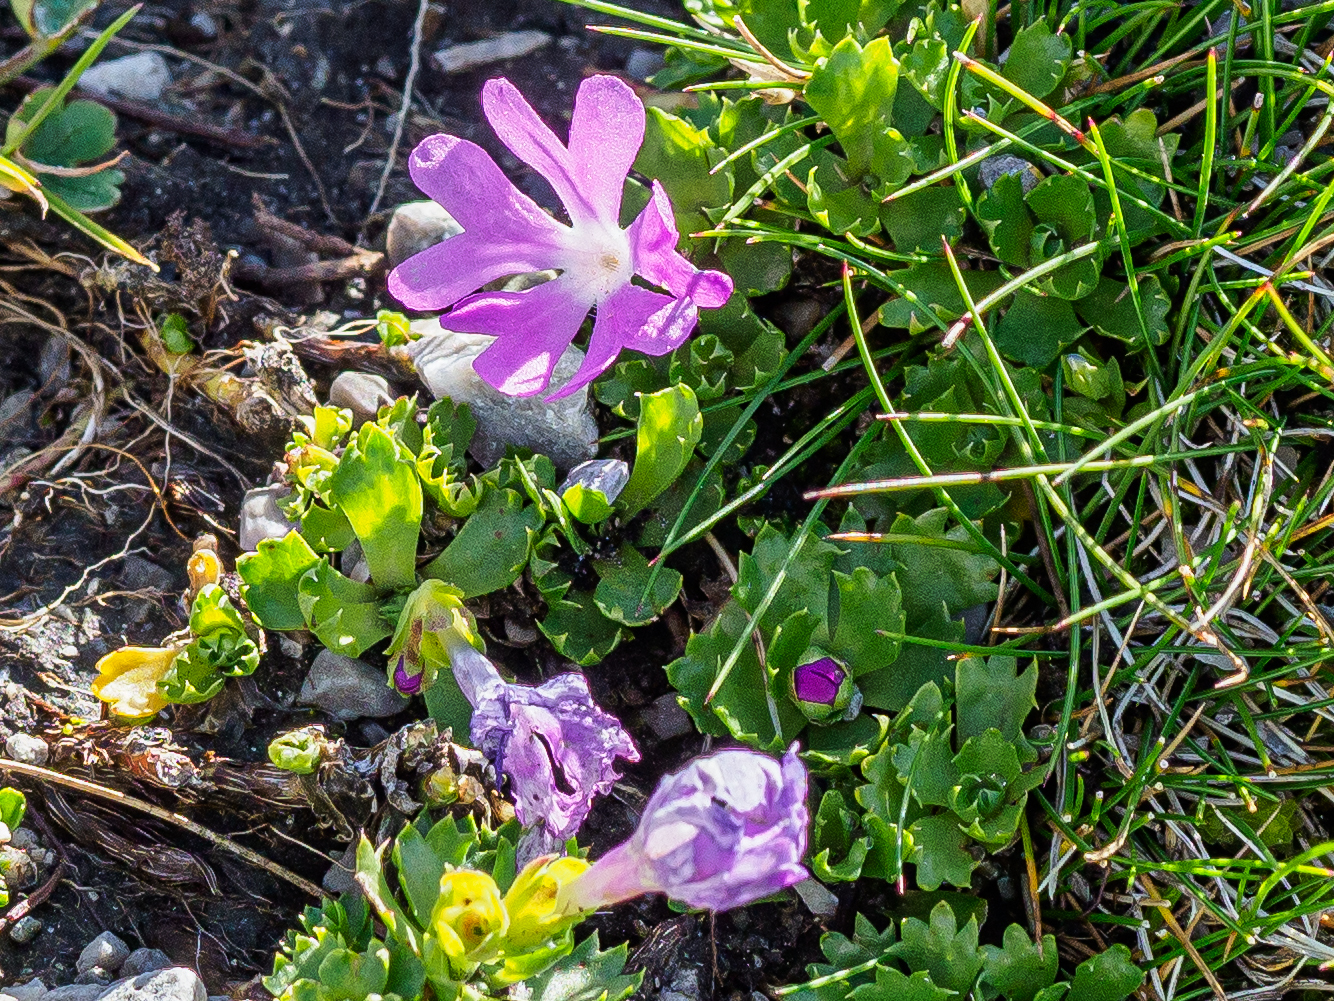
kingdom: Plantae
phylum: Tracheophyta
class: Magnoliopsida
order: Ericales
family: Primulaceae
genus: Primula
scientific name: Primula minima
